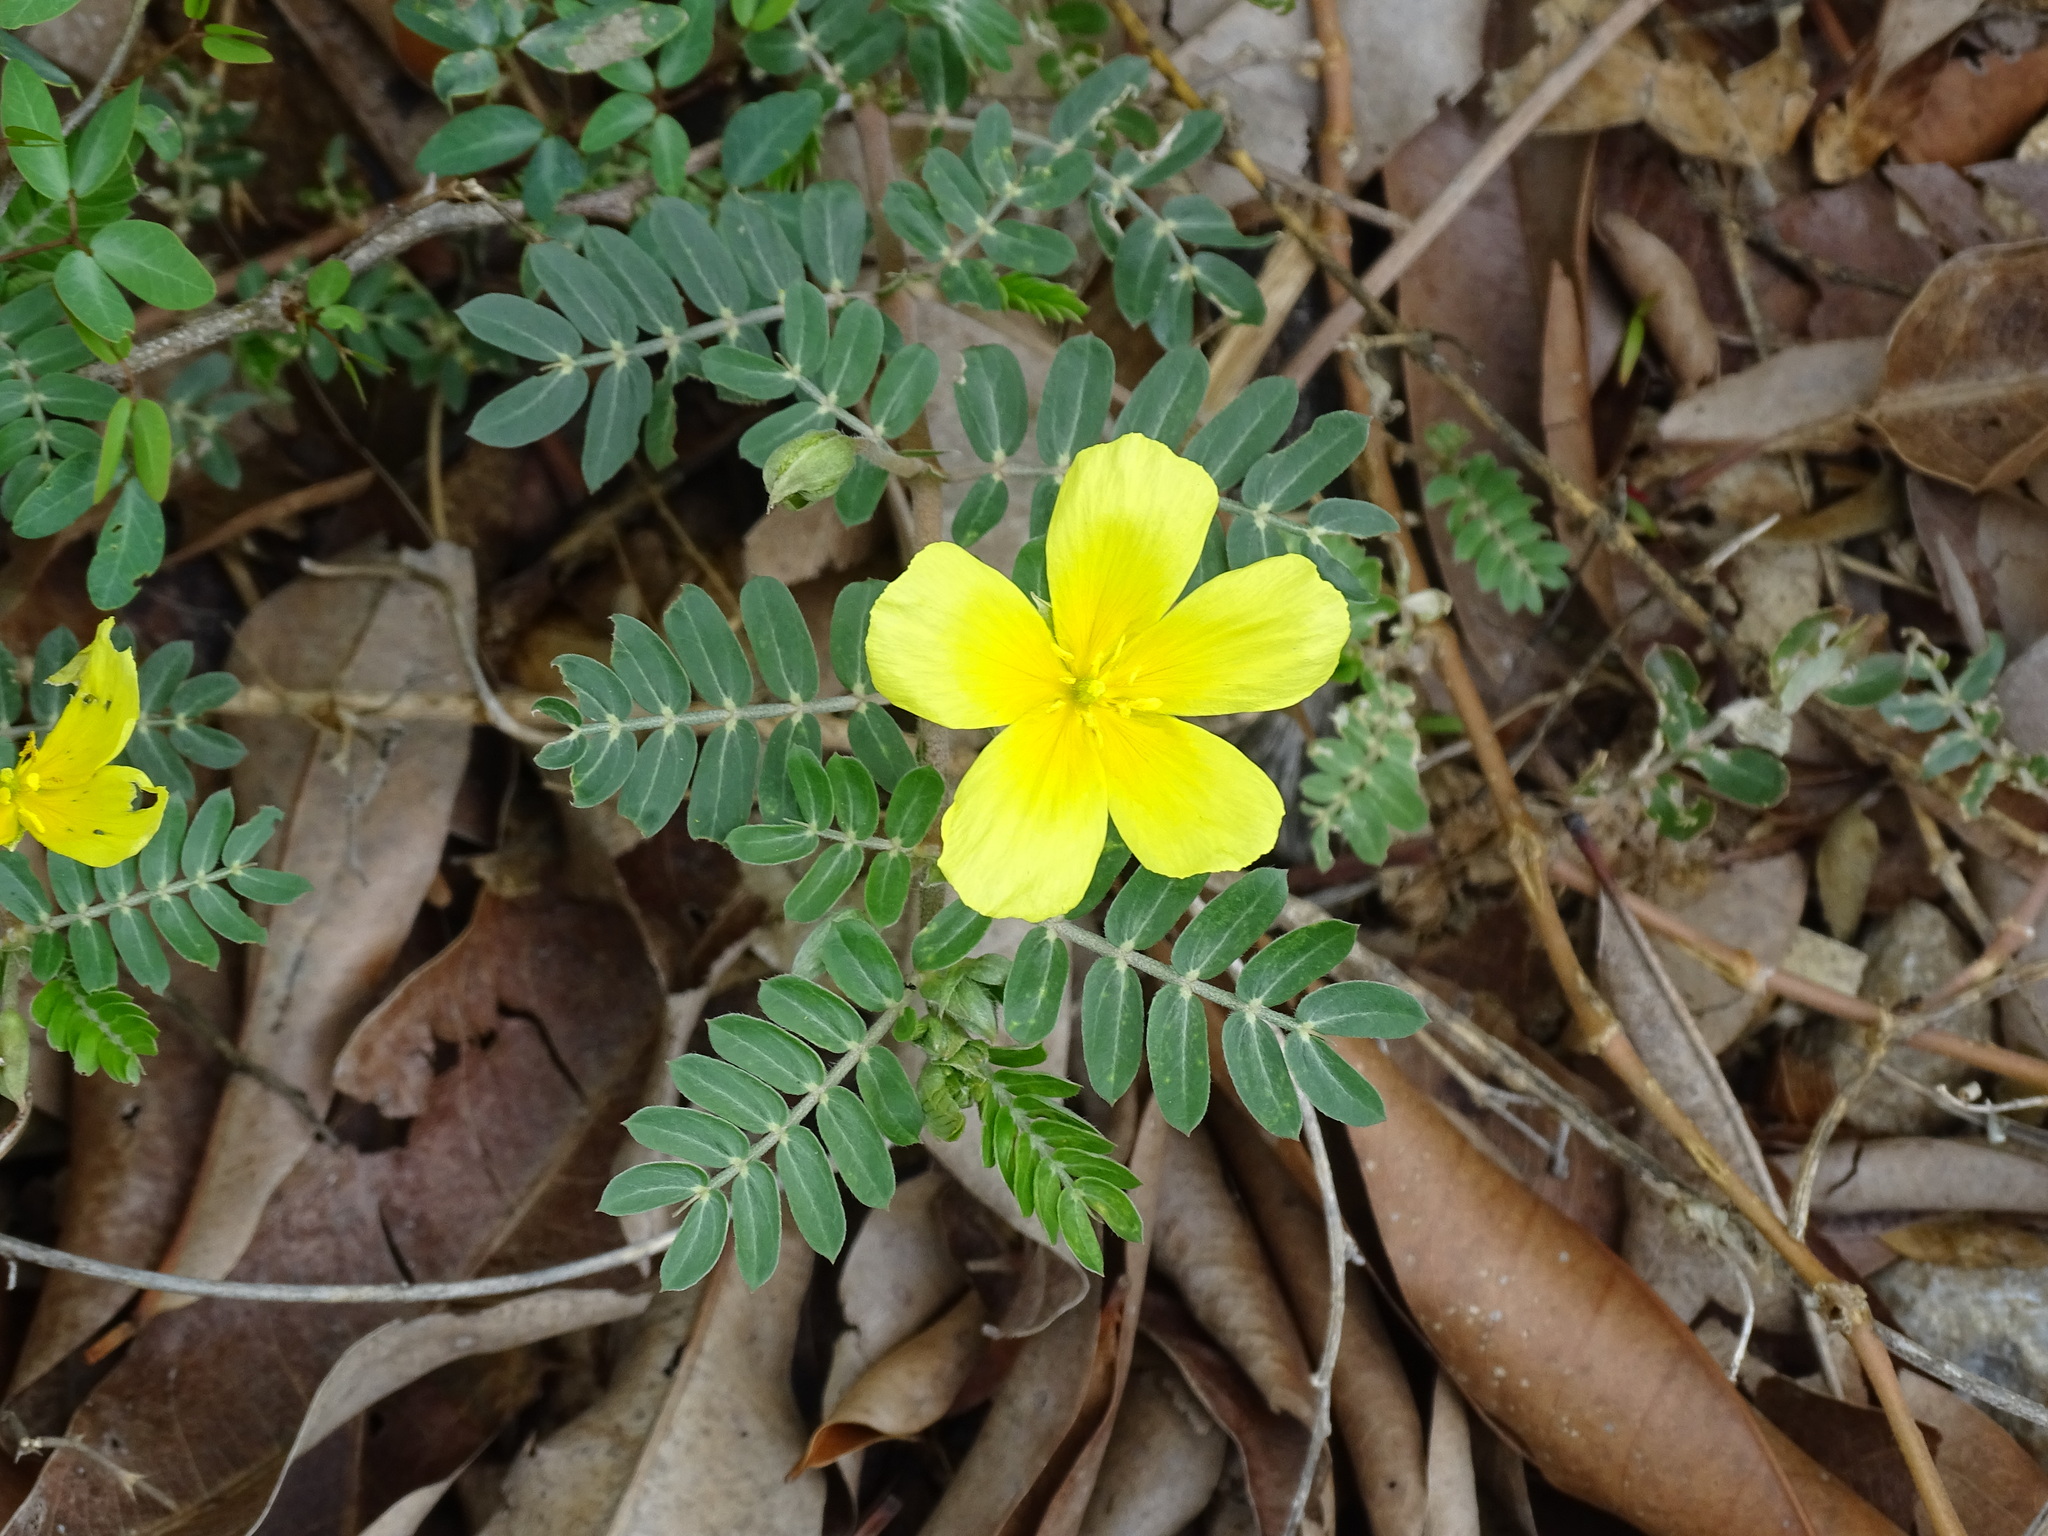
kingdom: Plantae
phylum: Tracheophyta
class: Magnoliopsida
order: Zygophyllales
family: Zygophyllaceae
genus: Tribulus
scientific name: Tribulus cistoides
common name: Jamaican feverplant
